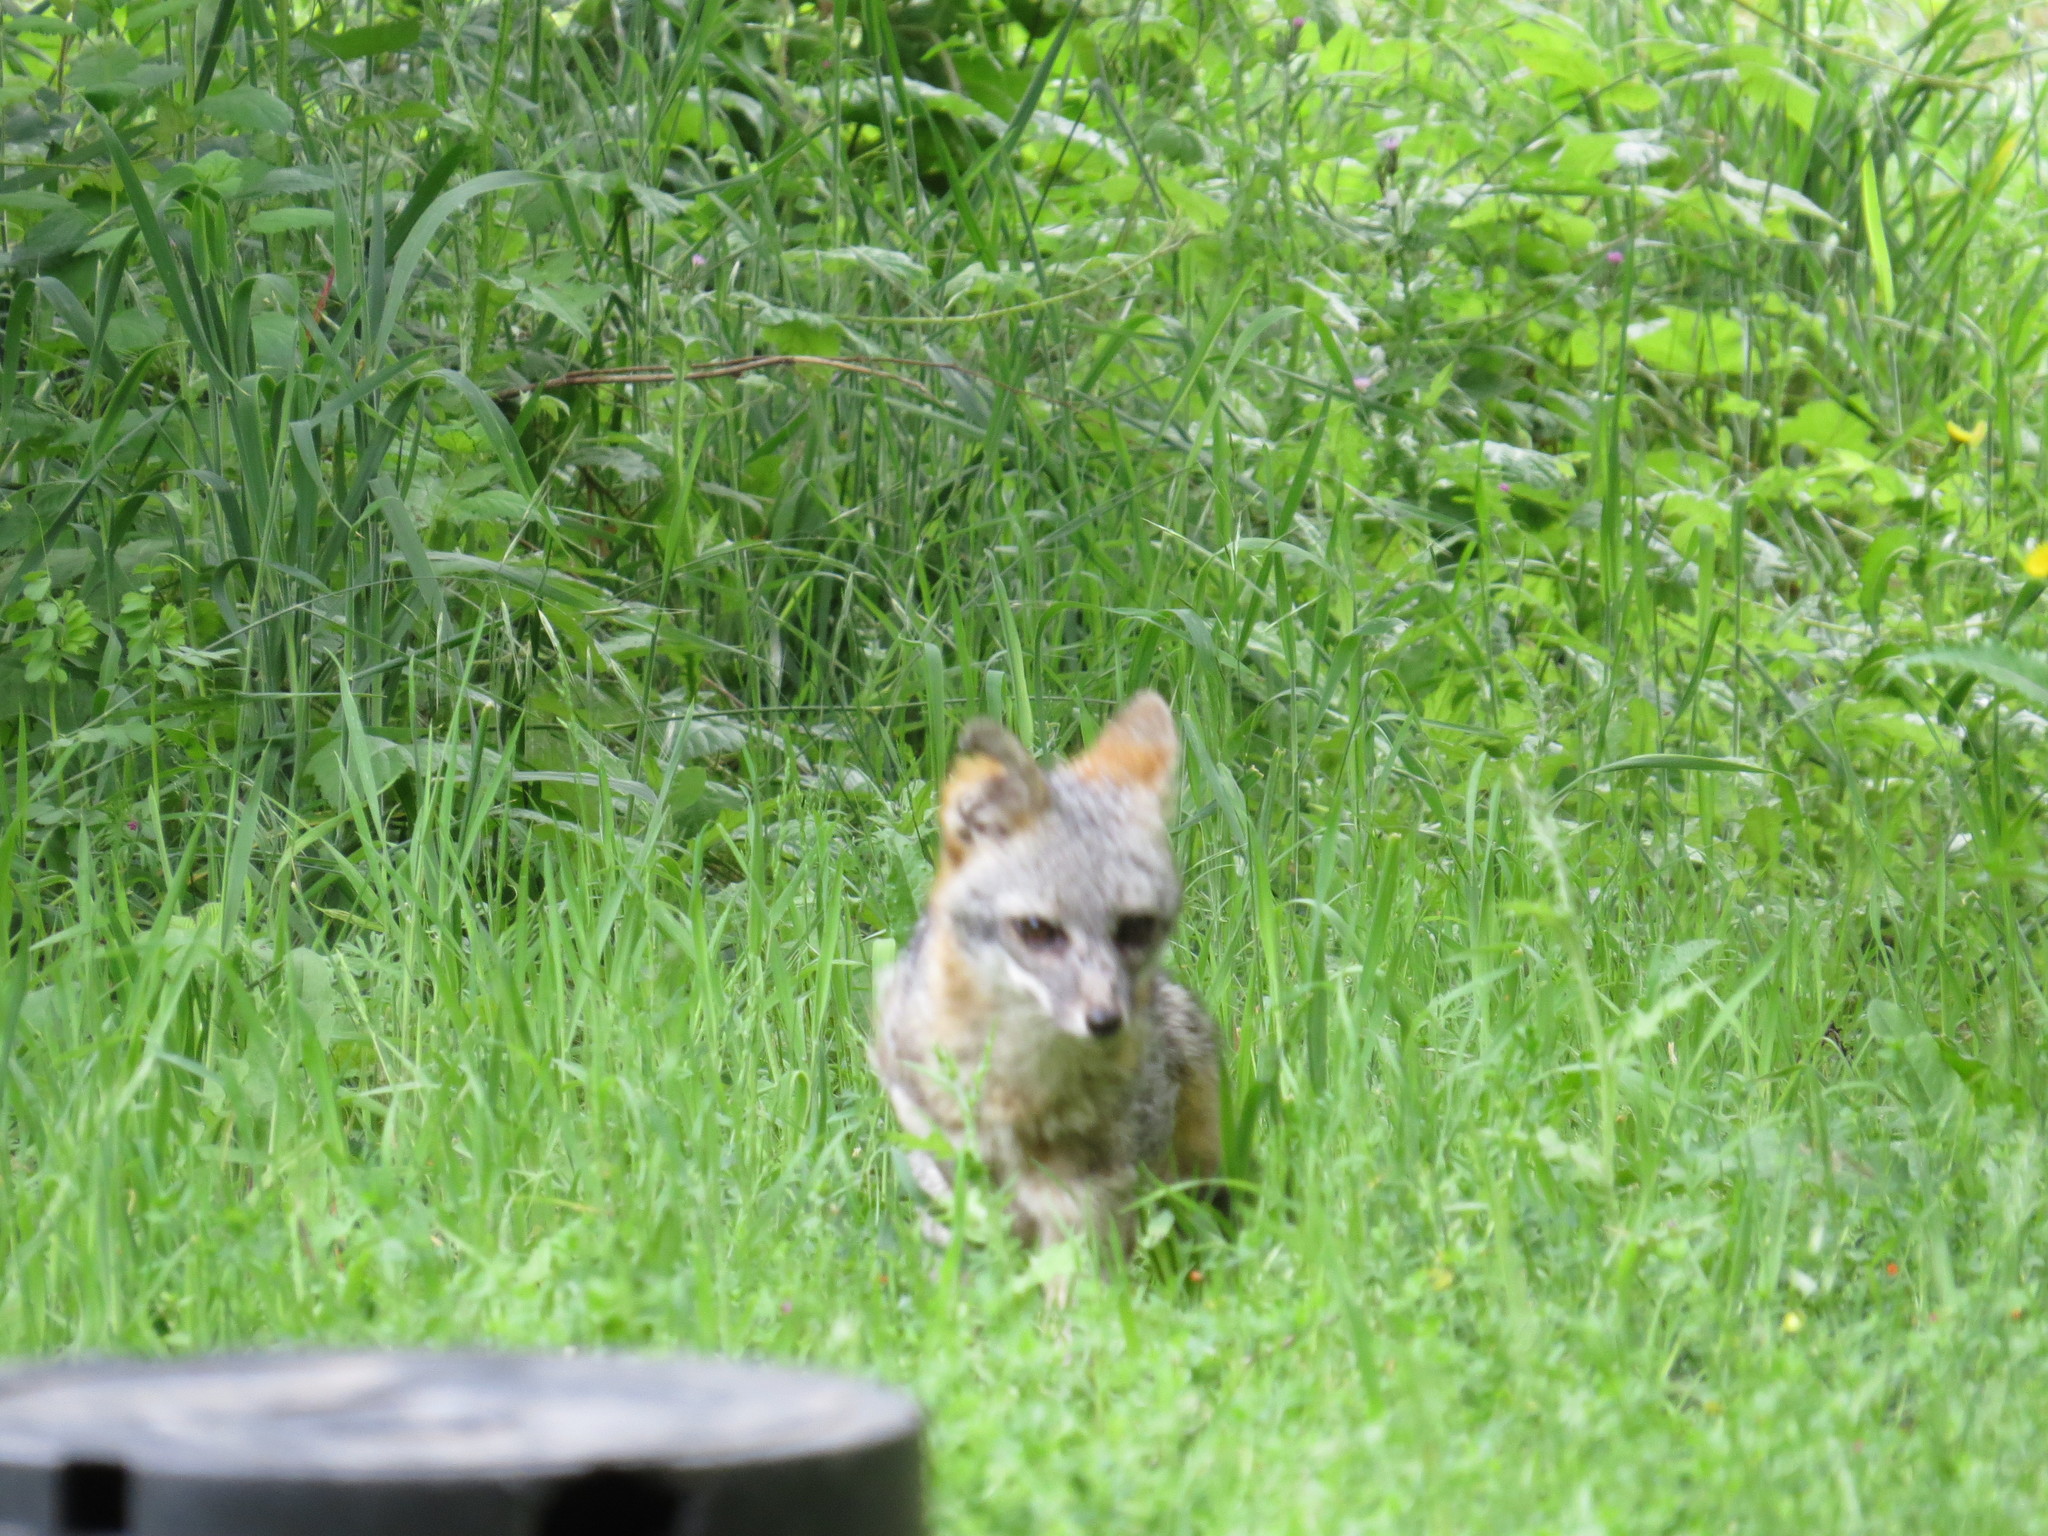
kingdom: Animalia
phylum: Chordata
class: Mammalia
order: Carnivora
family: Canidae
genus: Urocyon
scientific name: Urocyon cinereoargenteus
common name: Gray fox
